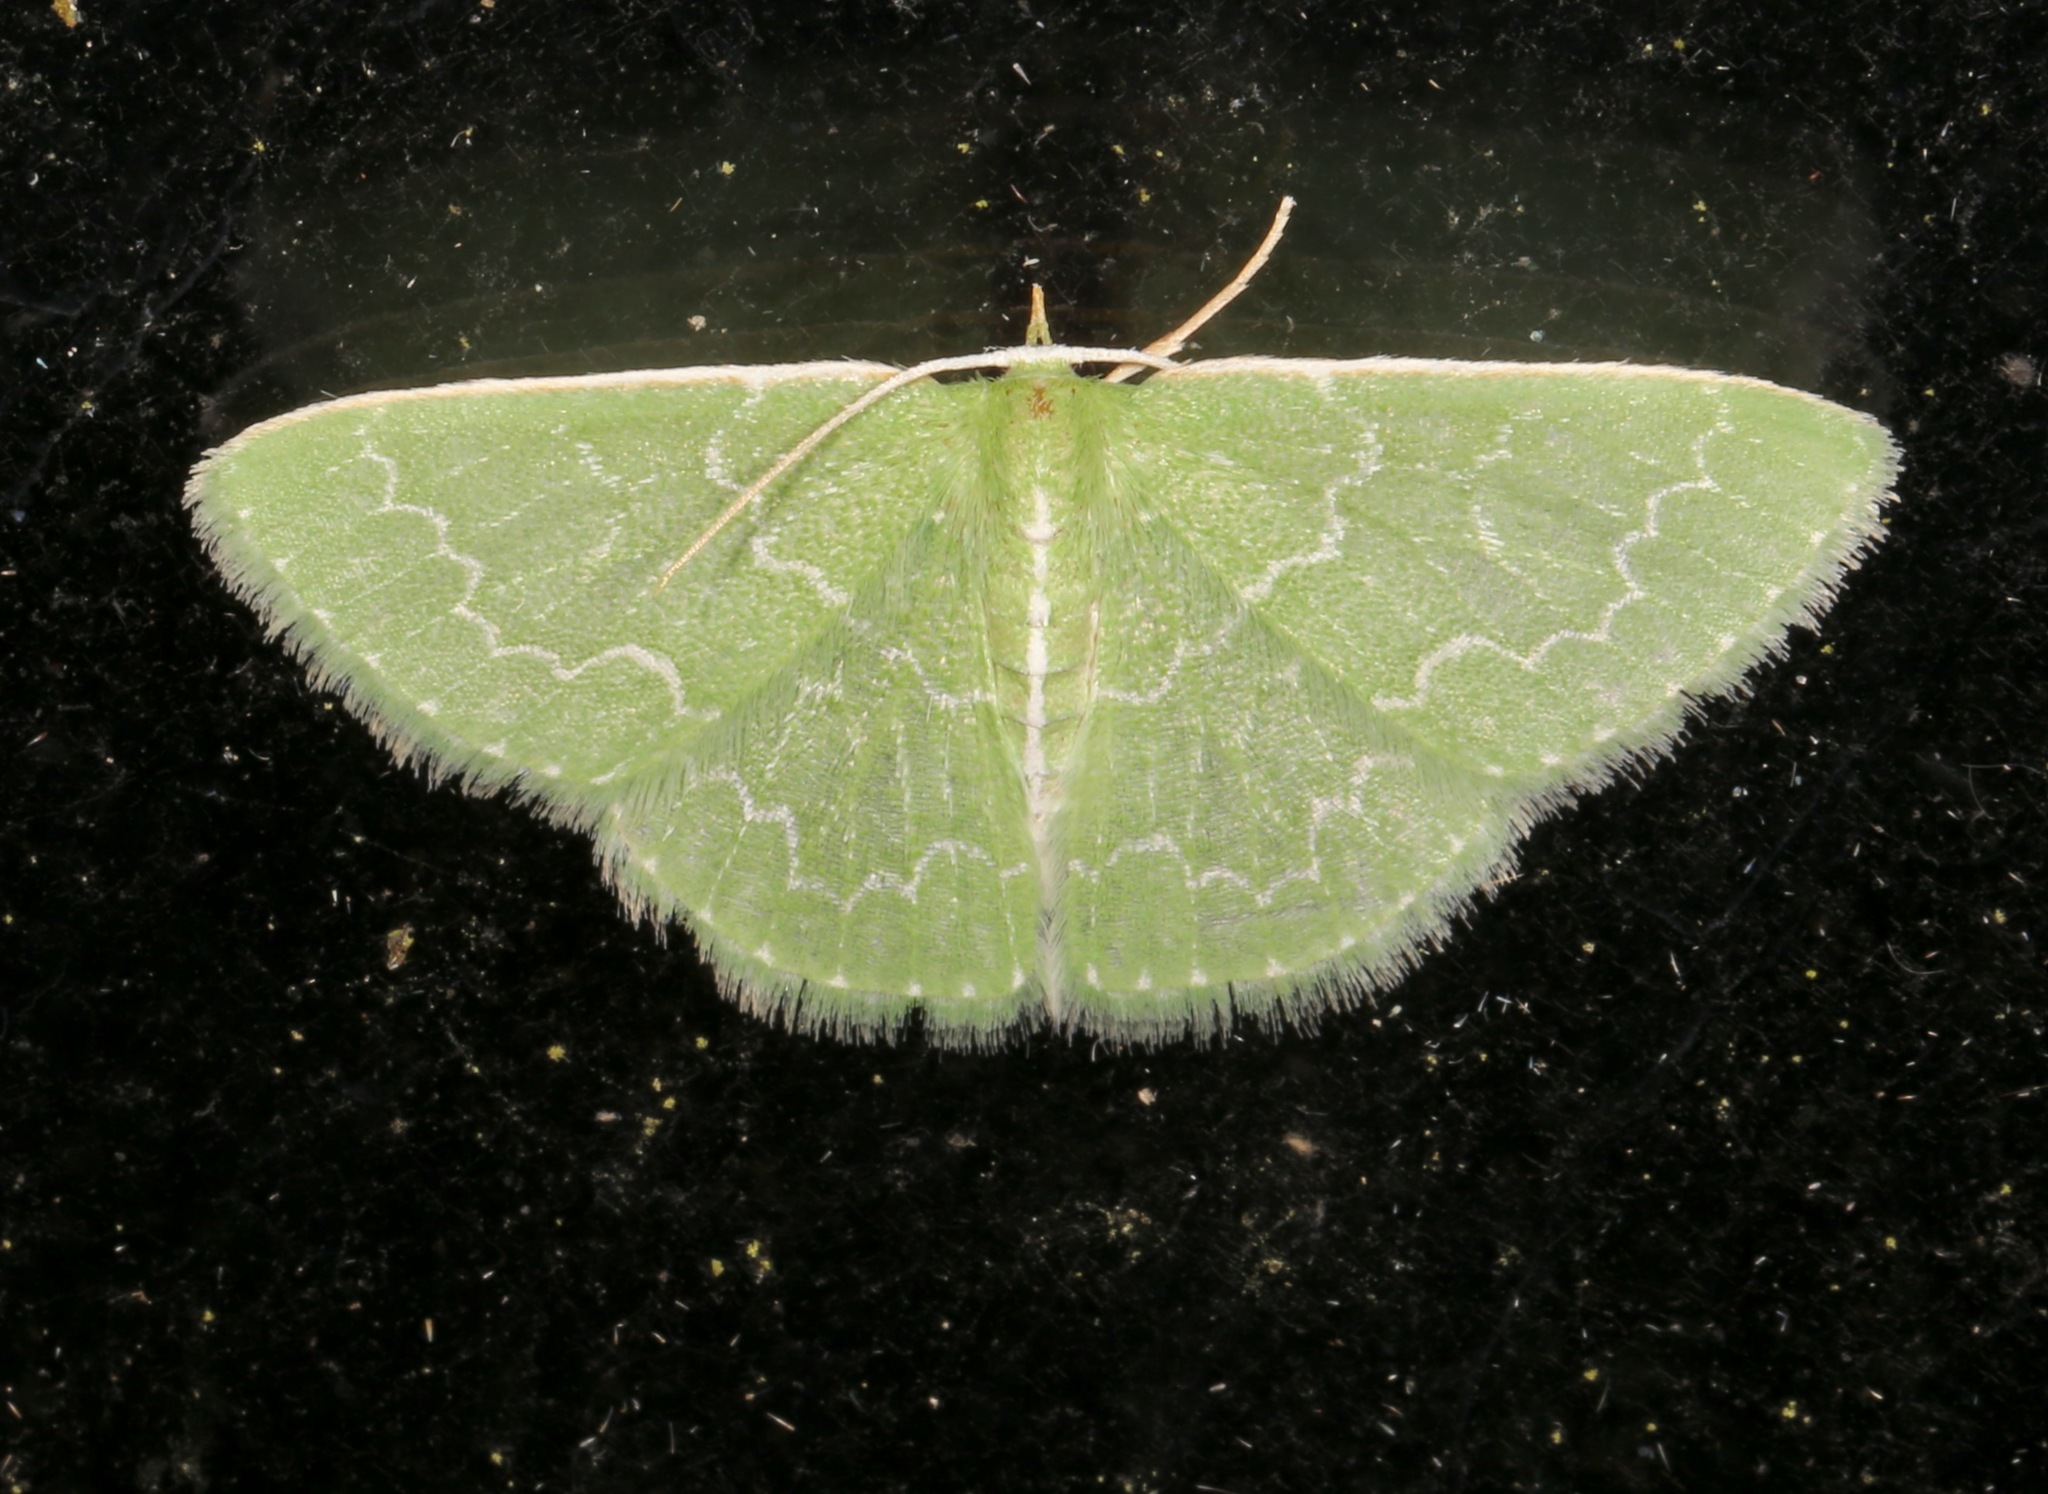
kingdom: Animalia
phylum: Arthropoda
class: Insecta
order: Lepidoptera
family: Geometridae
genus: Synchlora
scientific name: Synchlora frondaria
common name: Southern emerald
